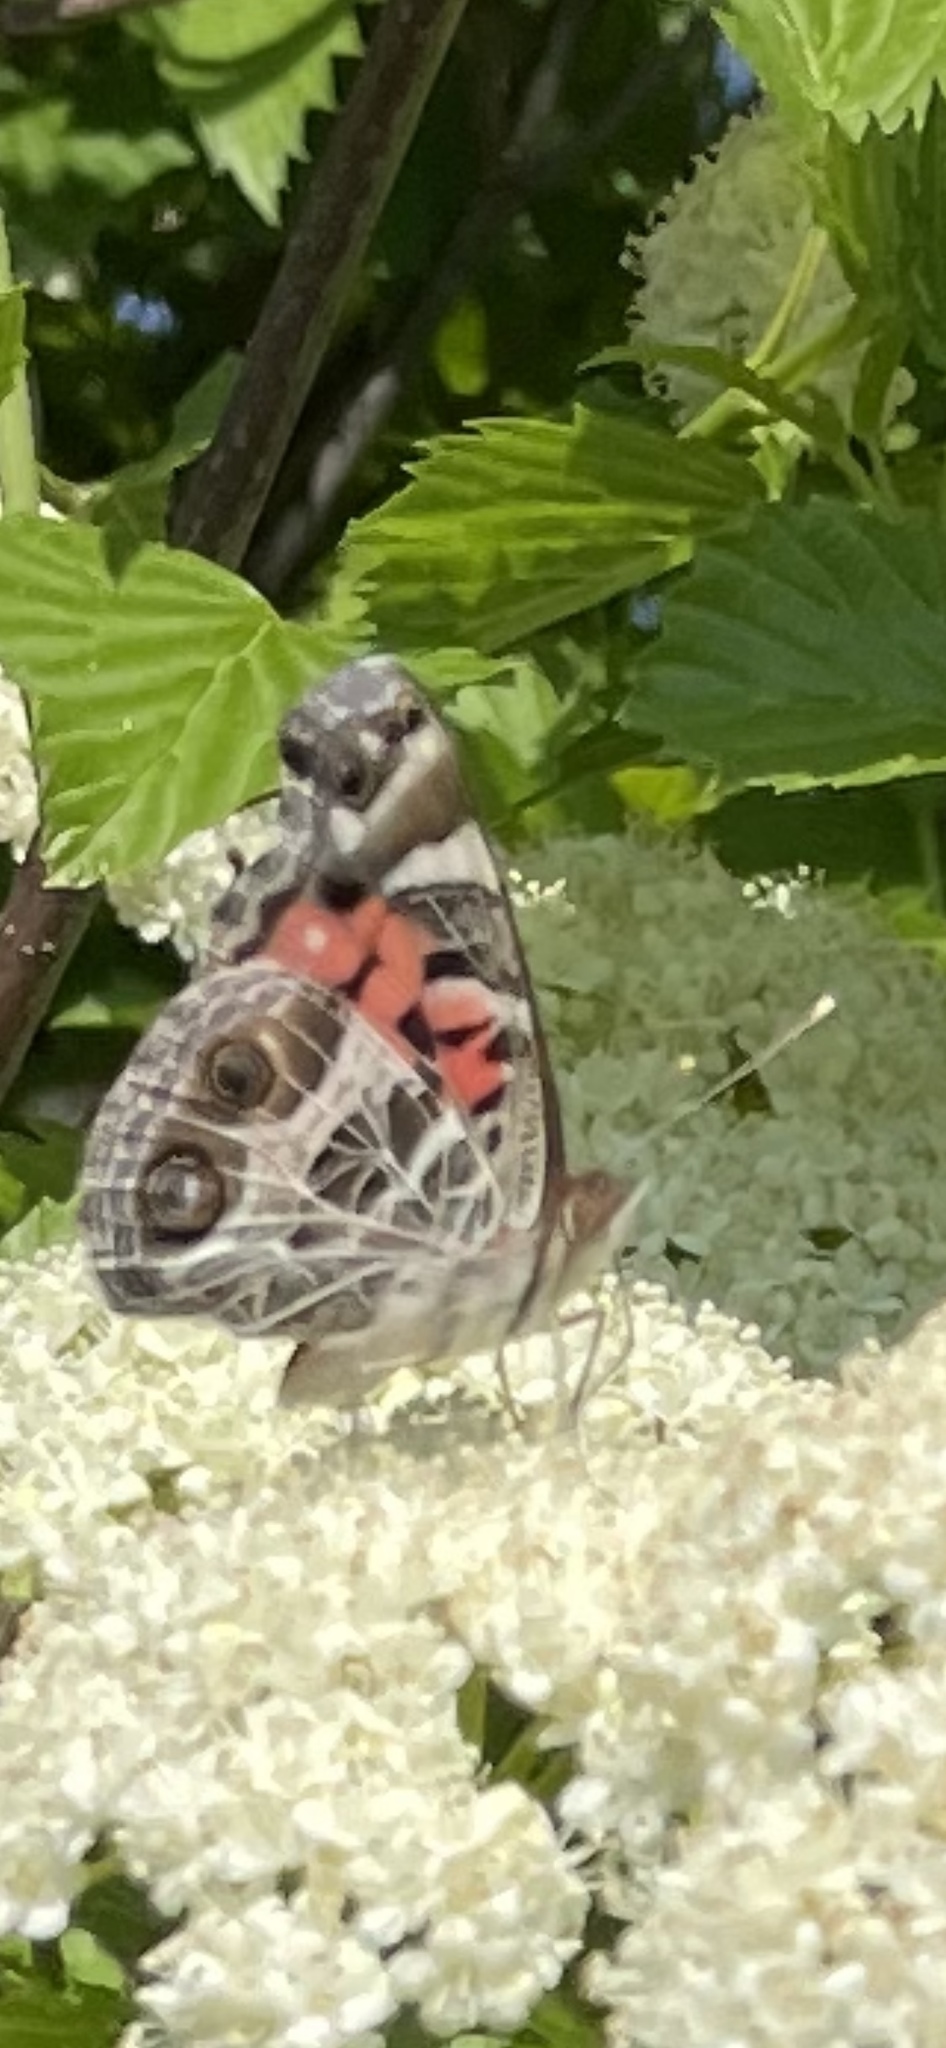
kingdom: Animalia
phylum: Arthropoda
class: Insecta
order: Lepidoptera
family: Nymphalidae
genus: Vanessa
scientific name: Vanessa virginiensis
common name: American lady
